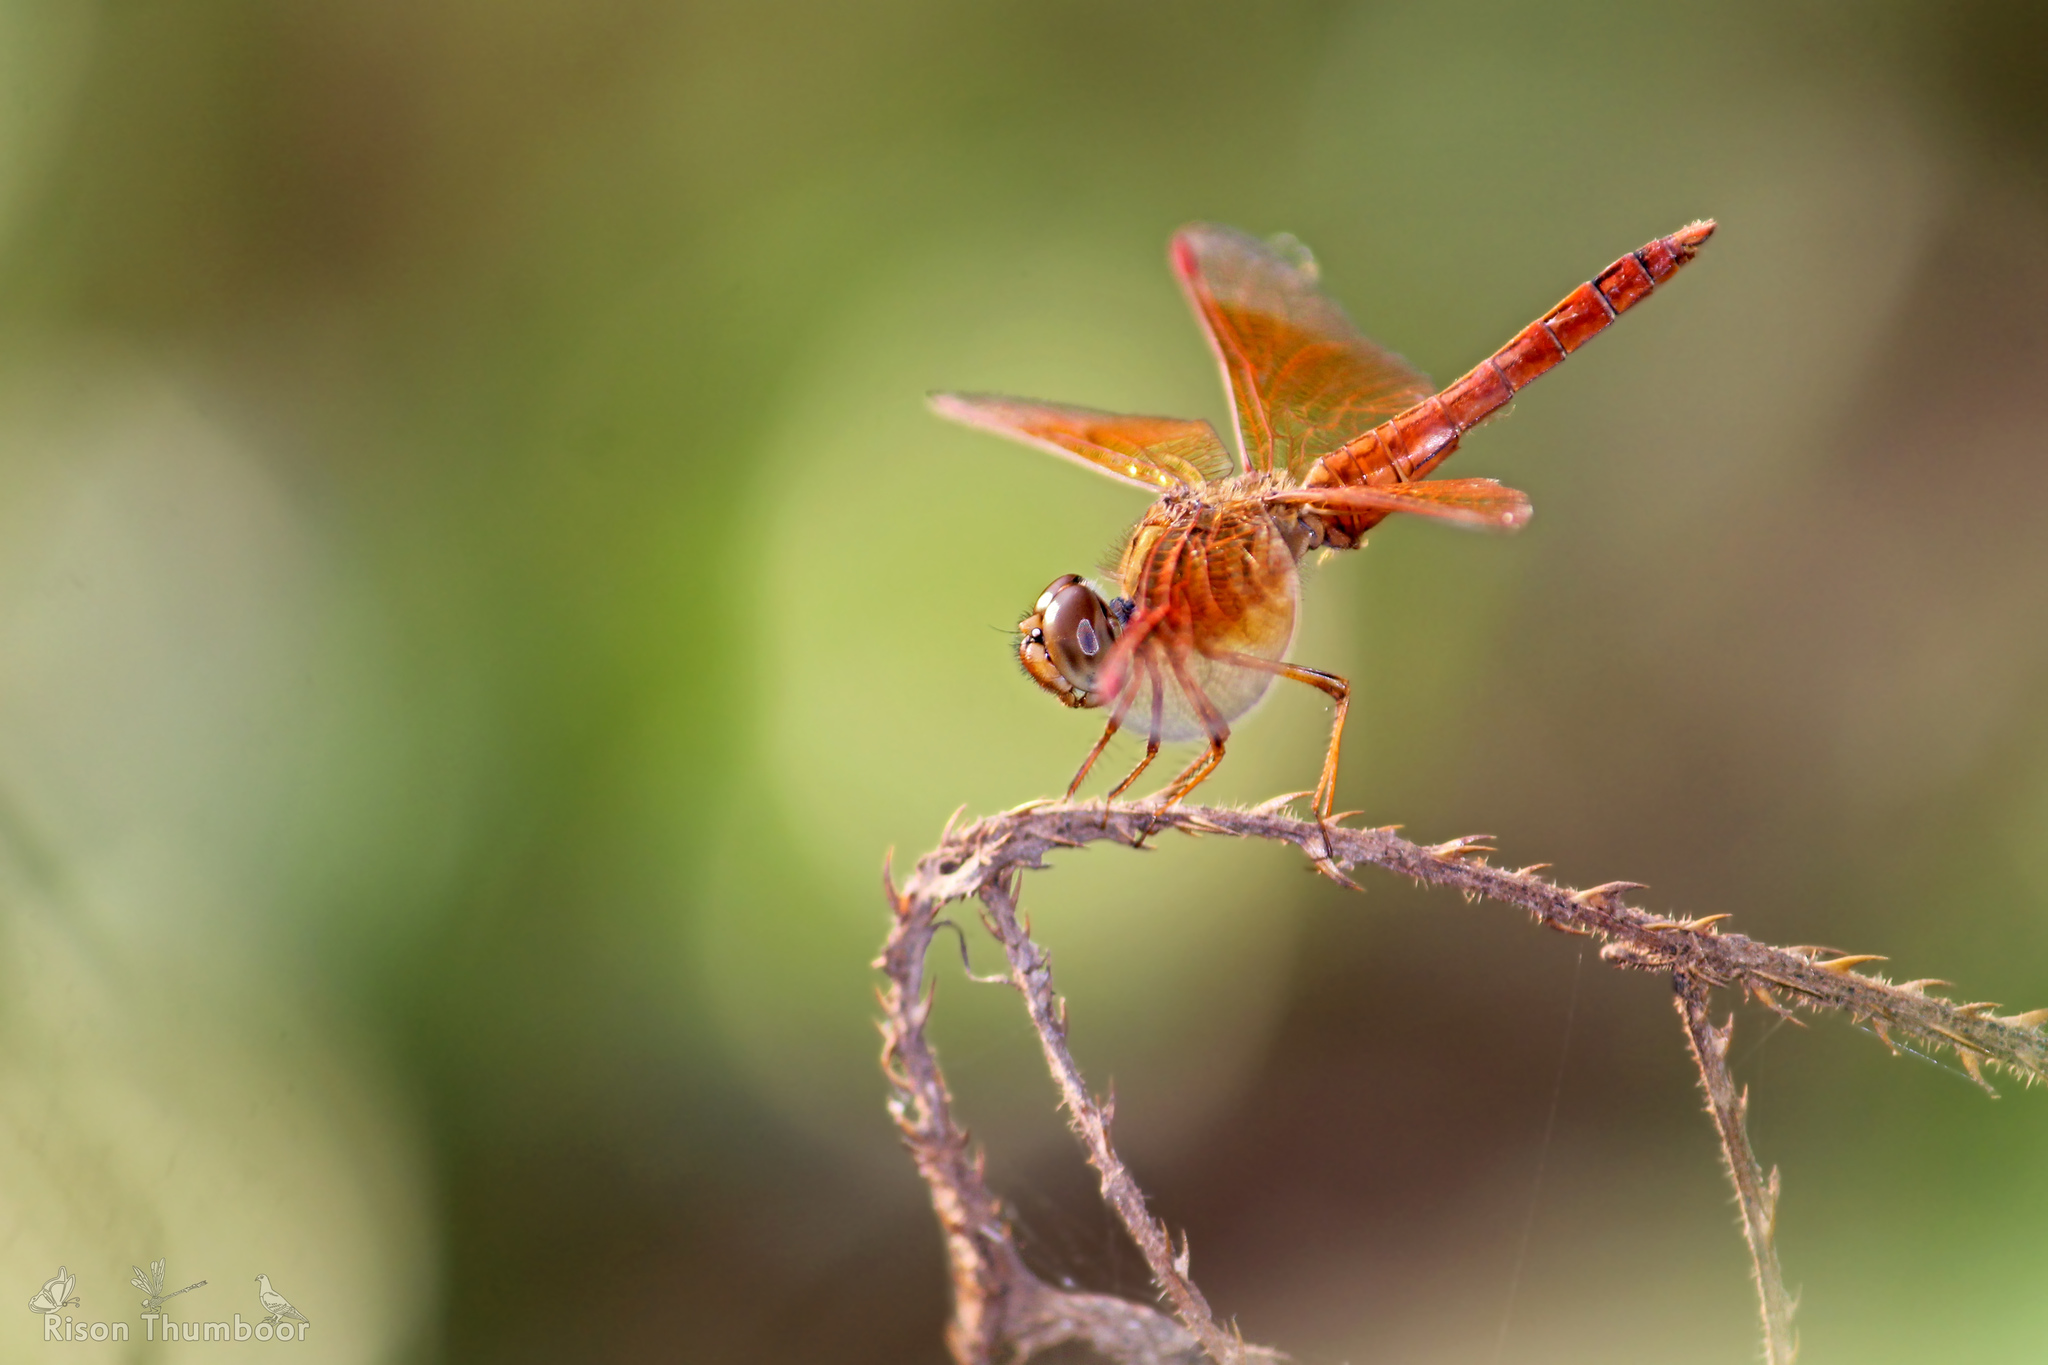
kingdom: Animalia
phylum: Arthropoda
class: Insecta
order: Odonata
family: Libellulidae
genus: Brachythemis
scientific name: Brachythemis contaminata
